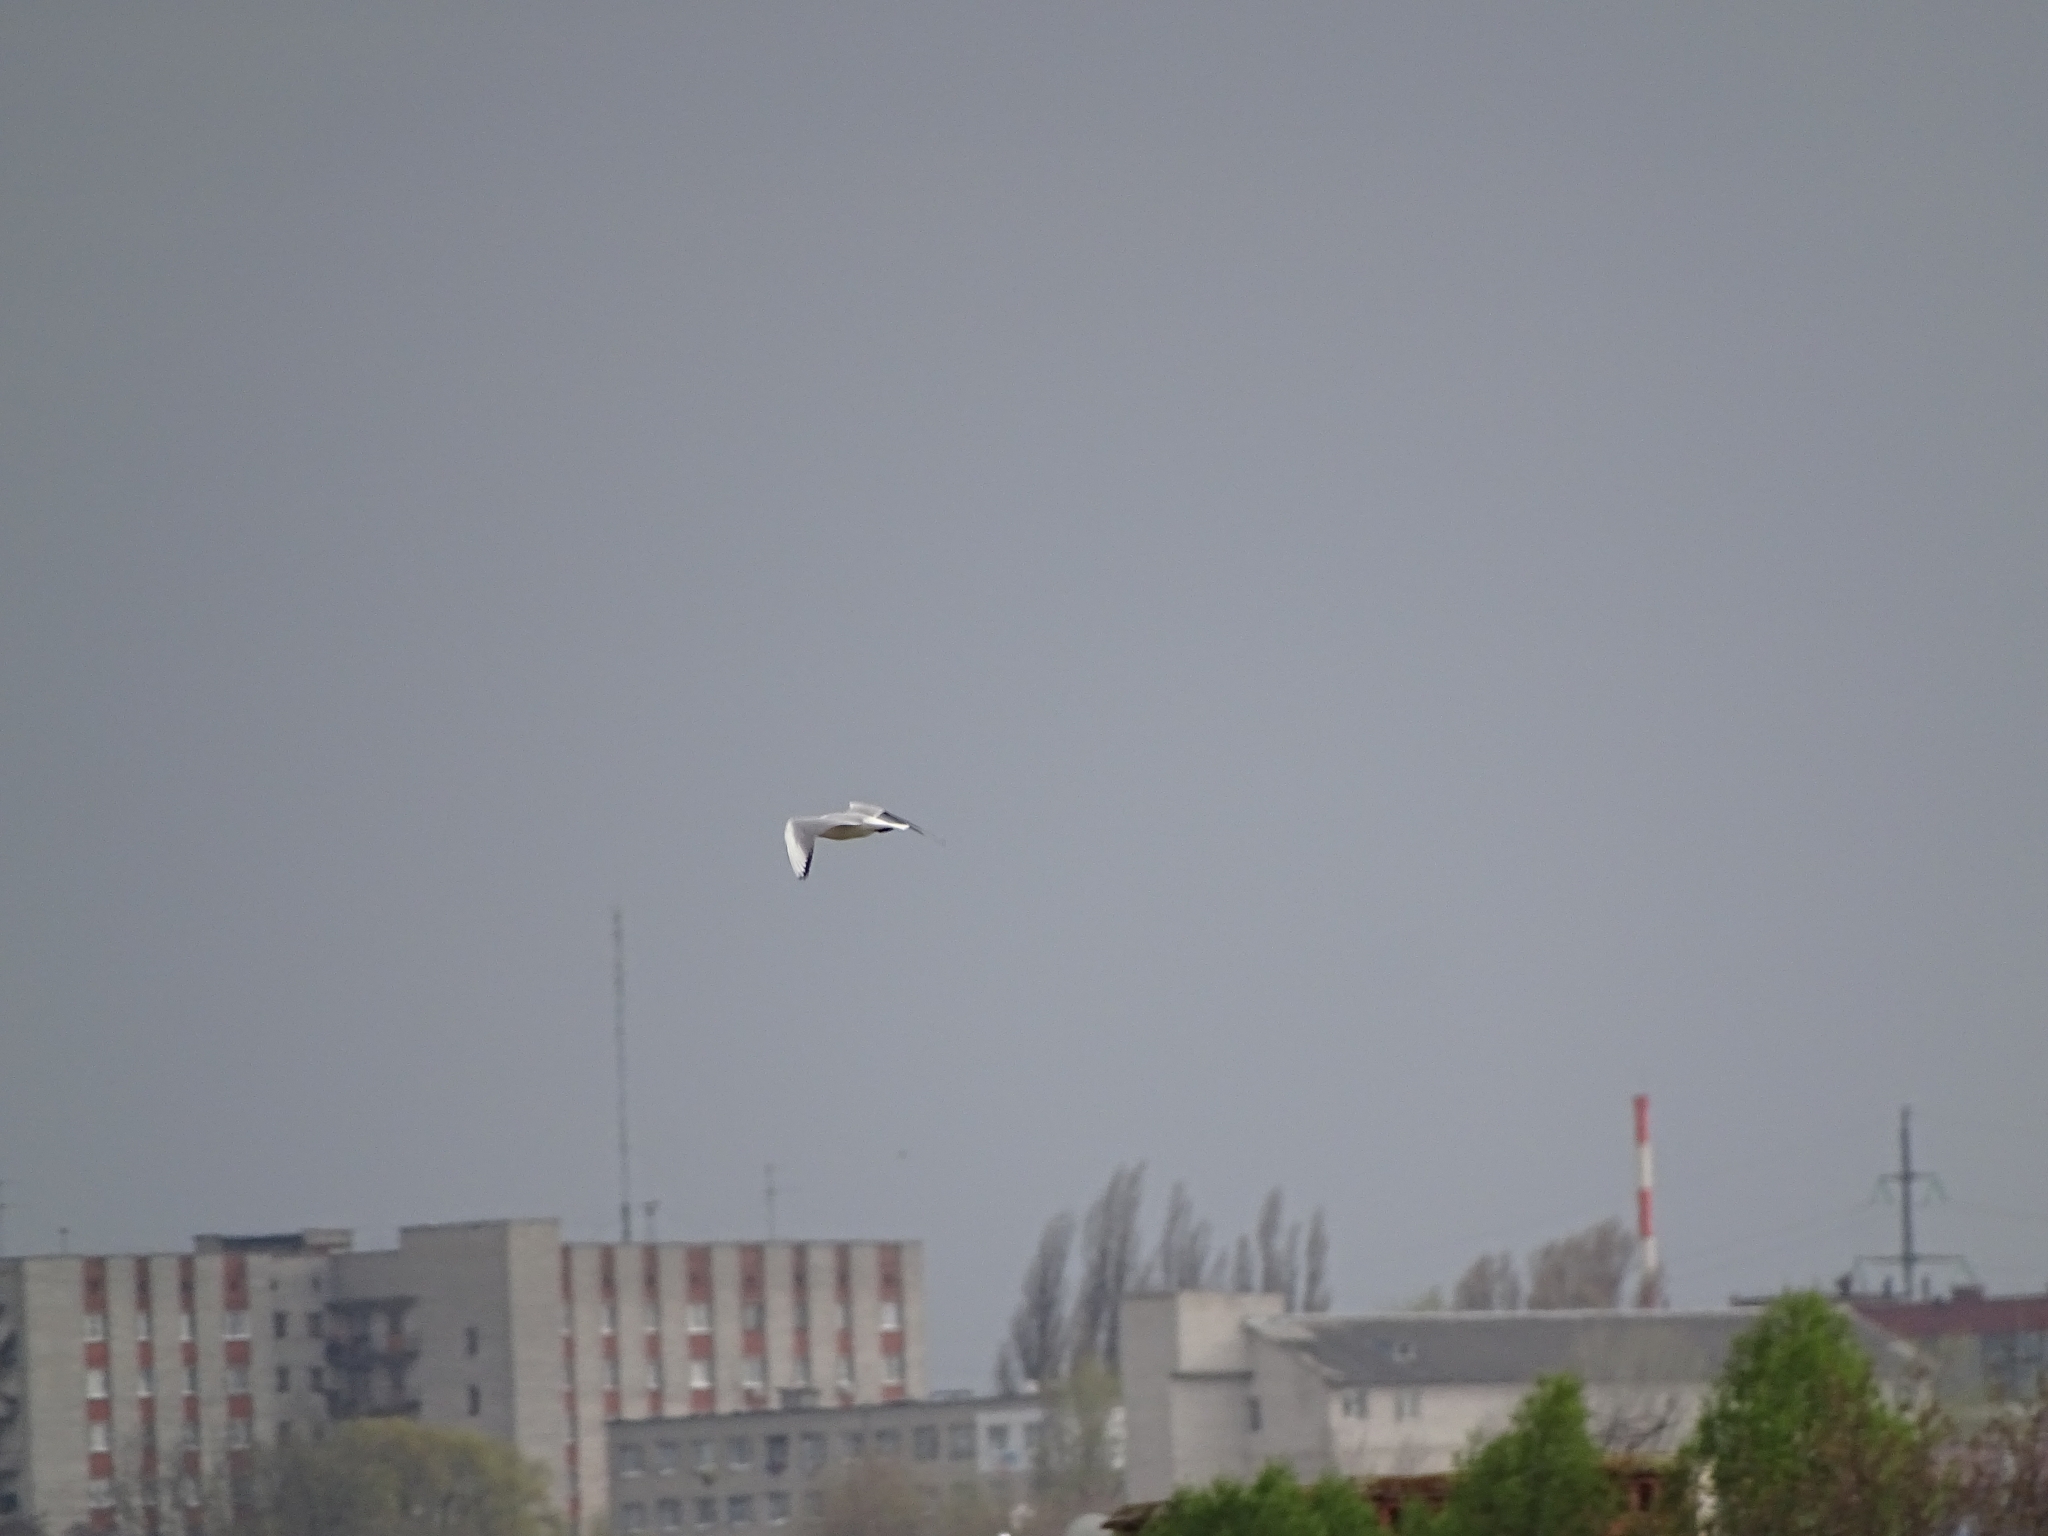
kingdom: Animalia
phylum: Chordata
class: Aves
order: Charadriiformes
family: Laridae
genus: Chroicocephalus
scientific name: Chroicocephalus ridibundus
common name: Black-headed gull
